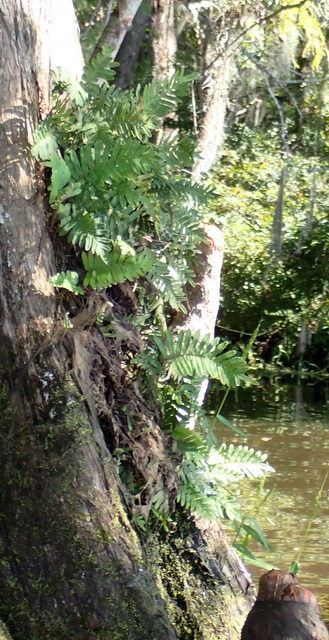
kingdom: Plantae
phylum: Tracheophyta
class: Polypodiopsida
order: Polypodiales
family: Polypodiaceae
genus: Pleopeltis
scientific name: Pleopeltis michauxiana
